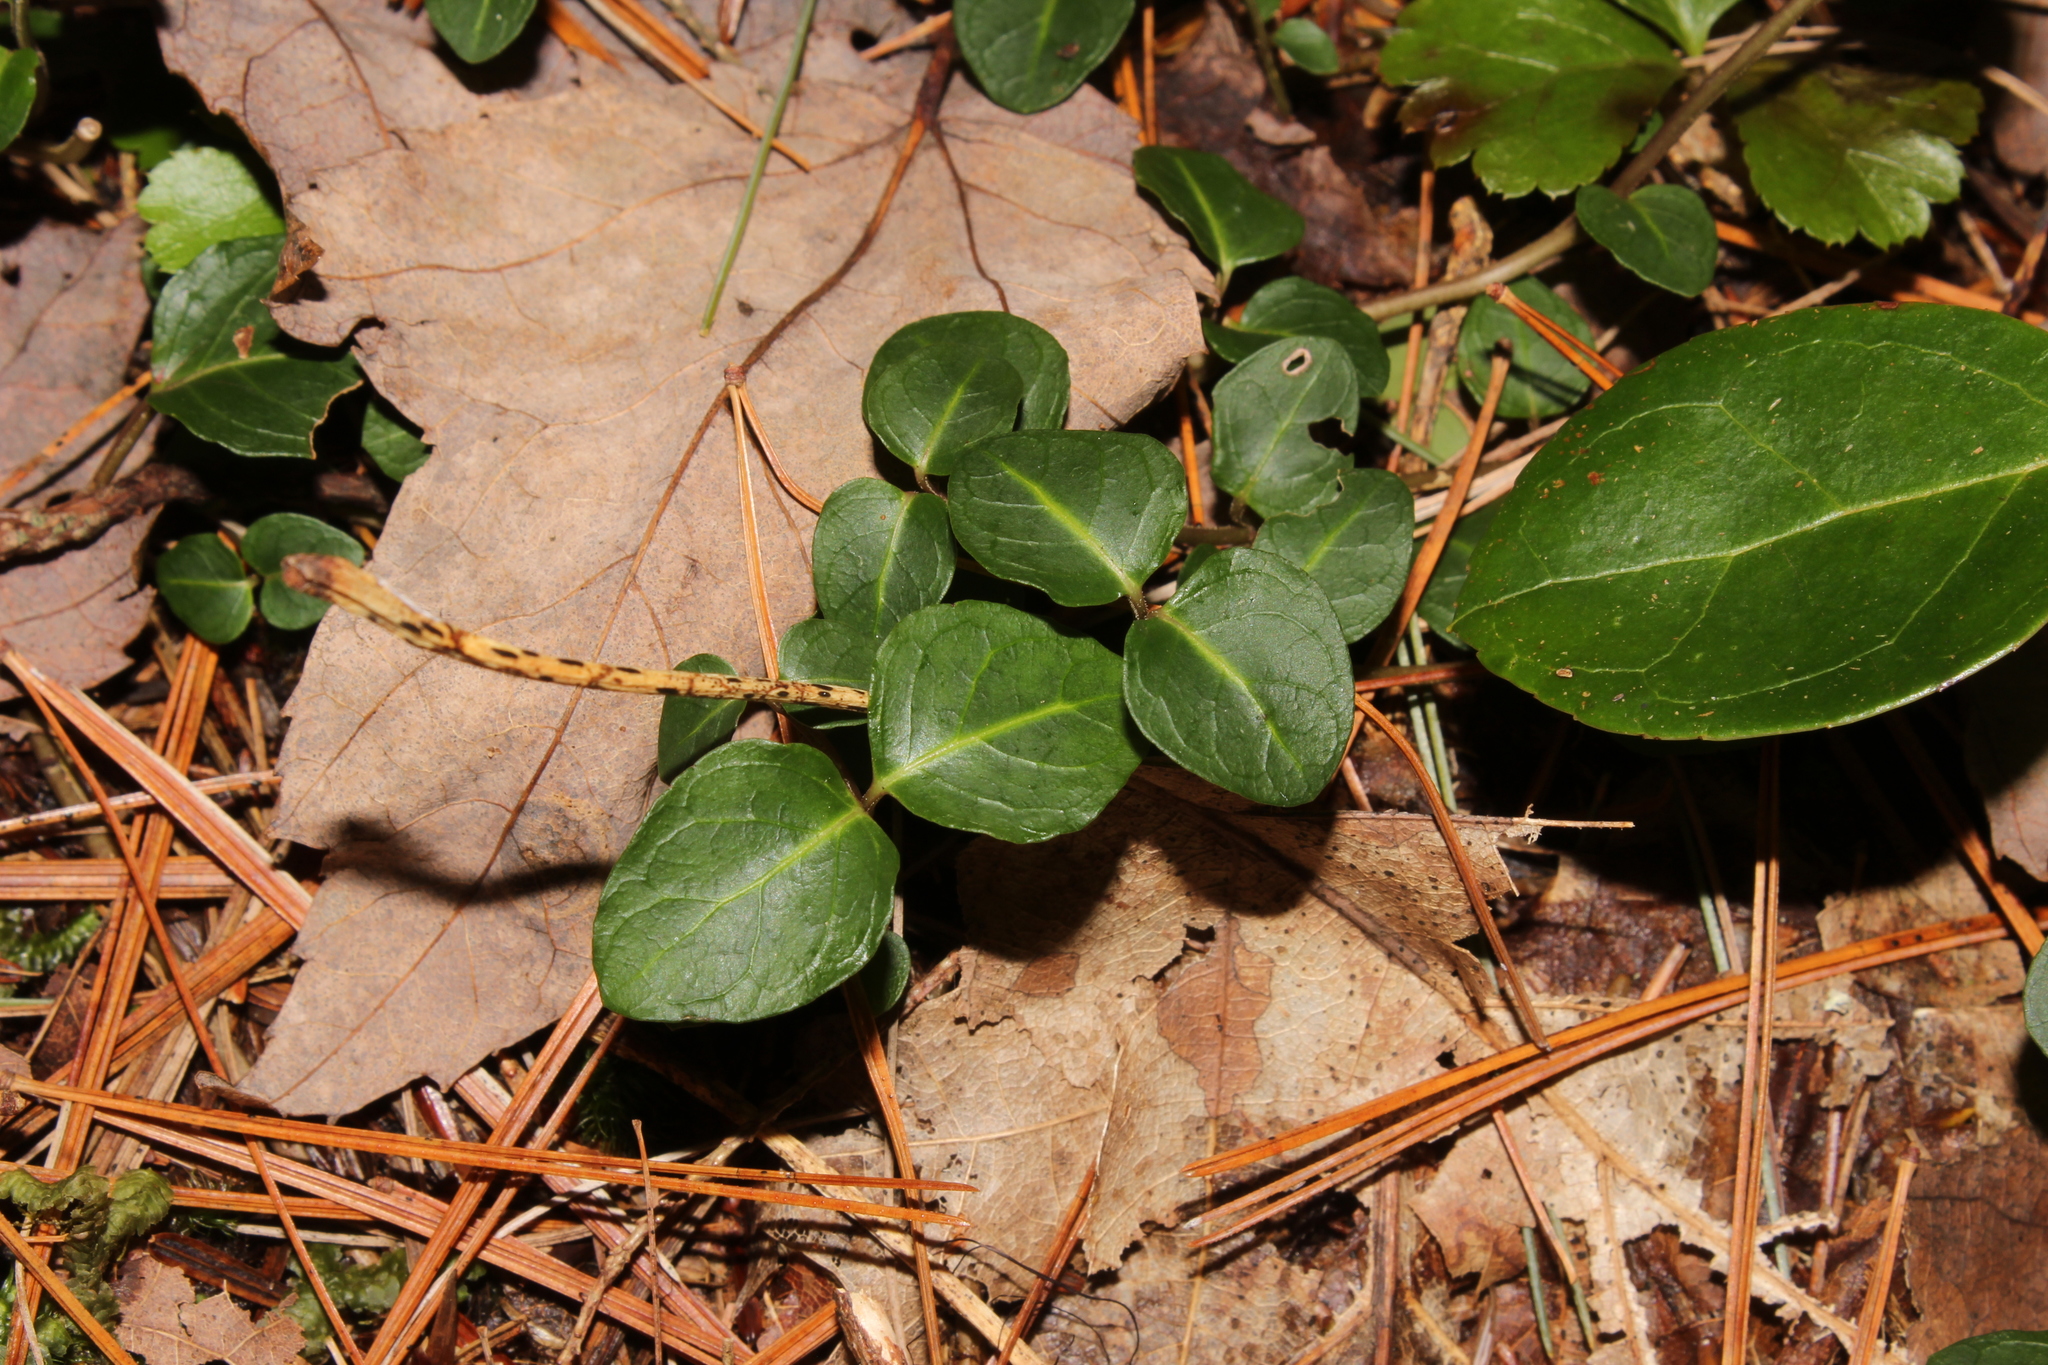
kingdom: Plantae
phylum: Tracheophyta
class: Magnoliopsida
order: Gentianales
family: Rubiaceae
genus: Mitchella
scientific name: Mitchella repens
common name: Partridge-berry
